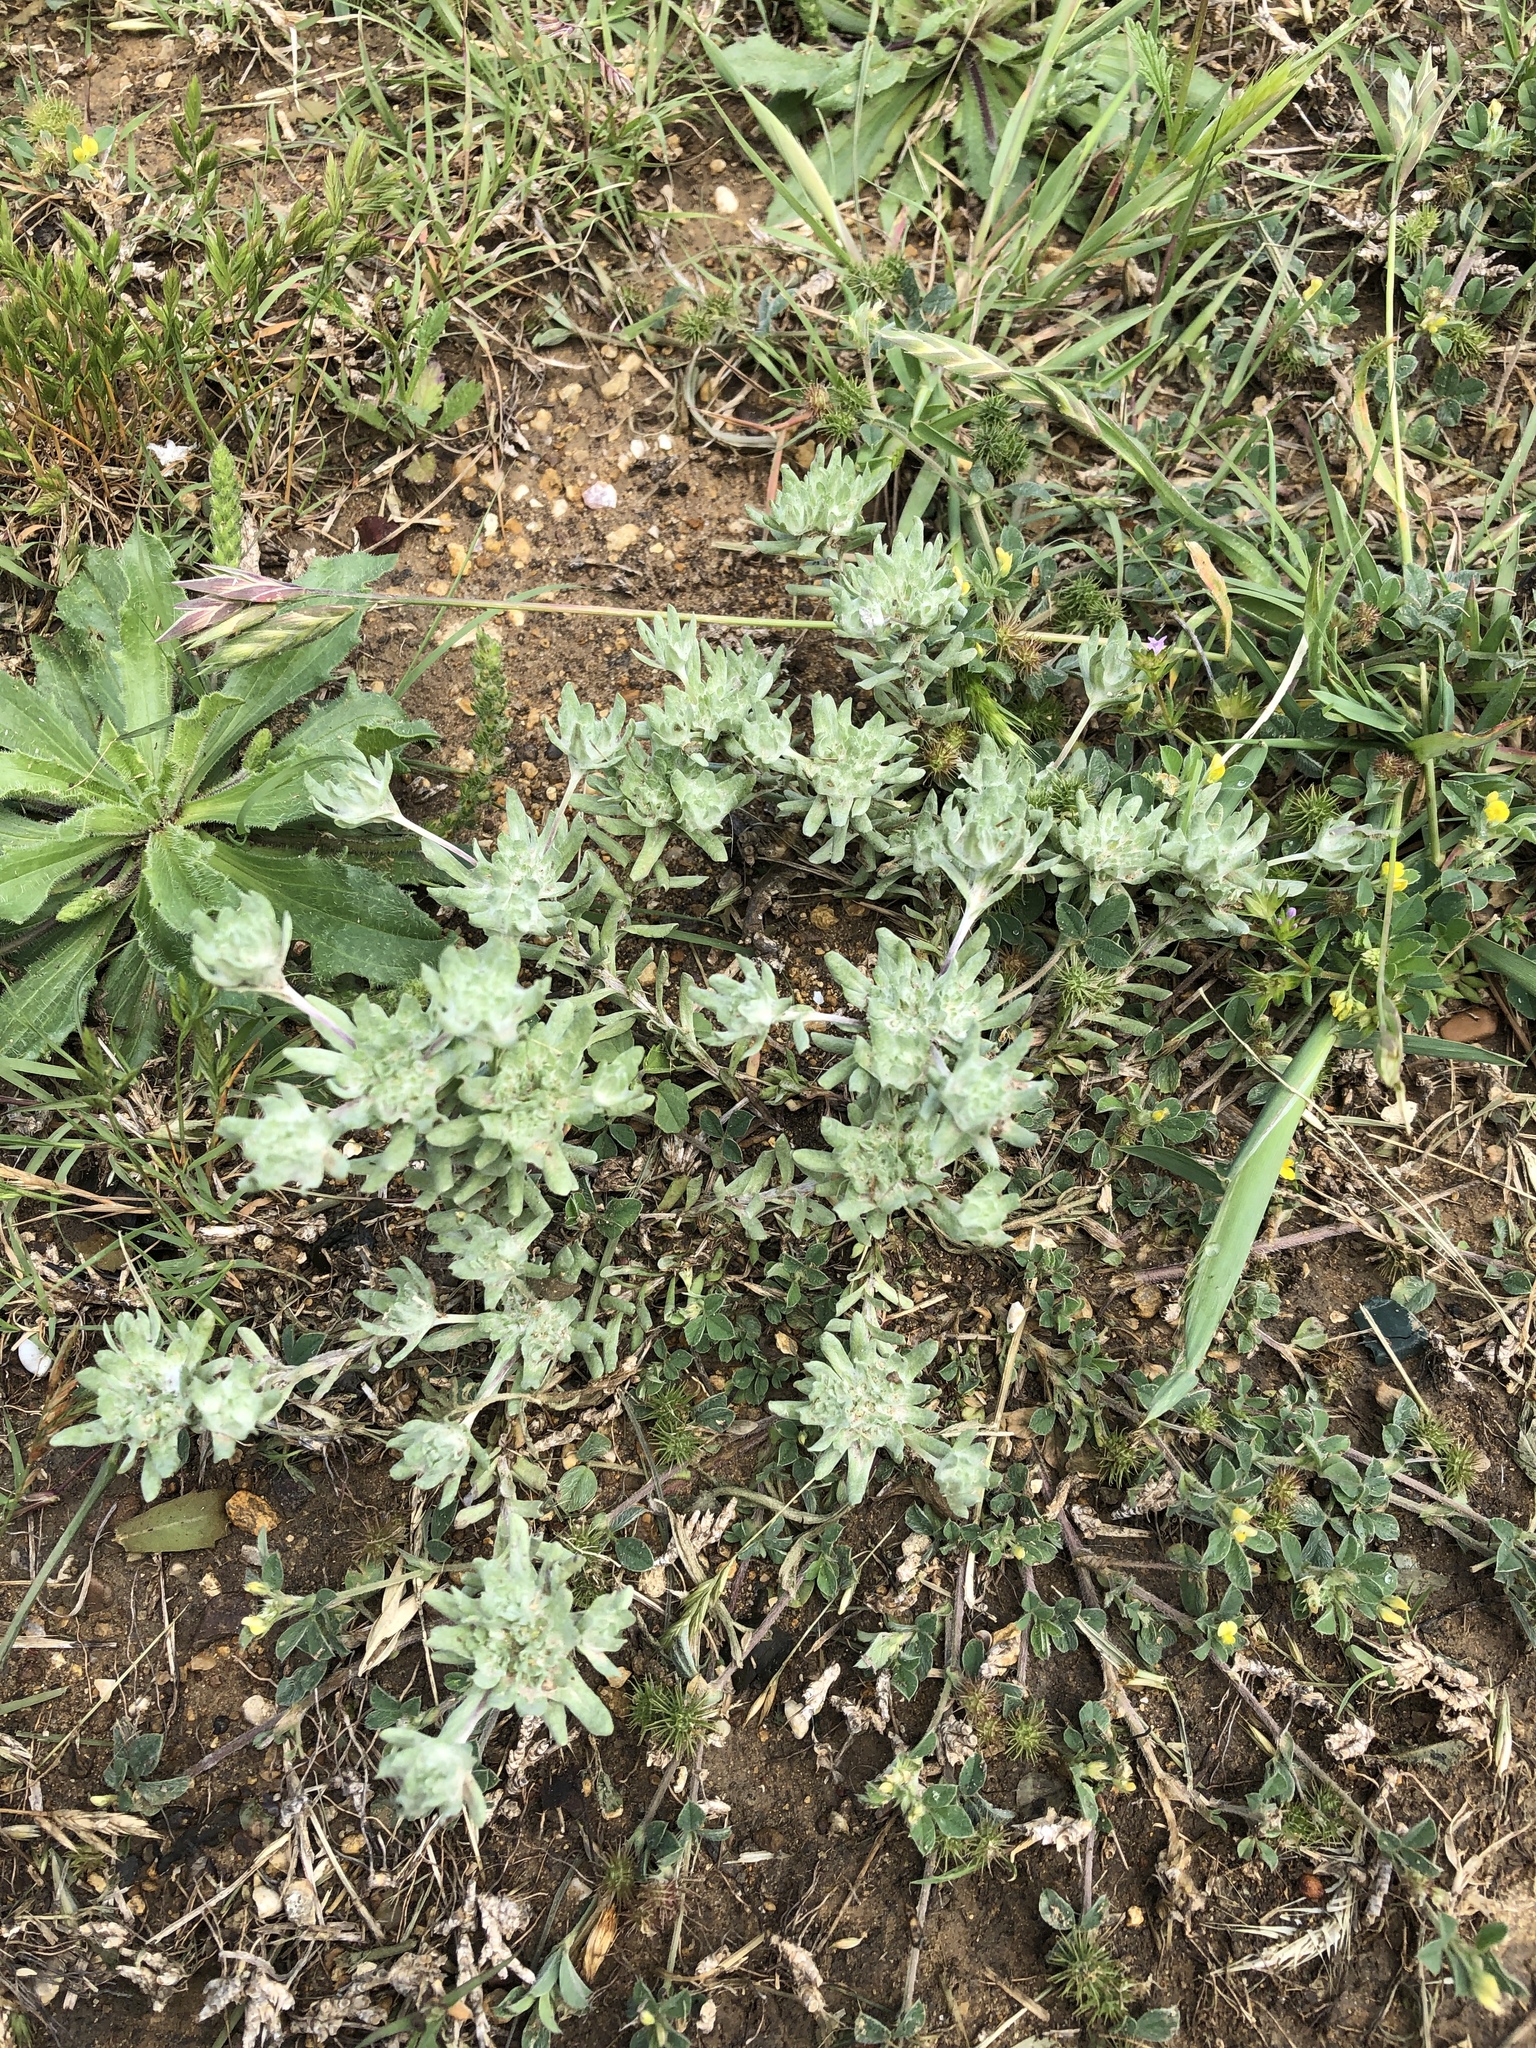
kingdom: Plantae
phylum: Tracheophyta
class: Magnoliopsida
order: Asterales
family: Asteraceae
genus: Diaperia
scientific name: Diaperia prolifera
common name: Big-head rabbit-tobacco
